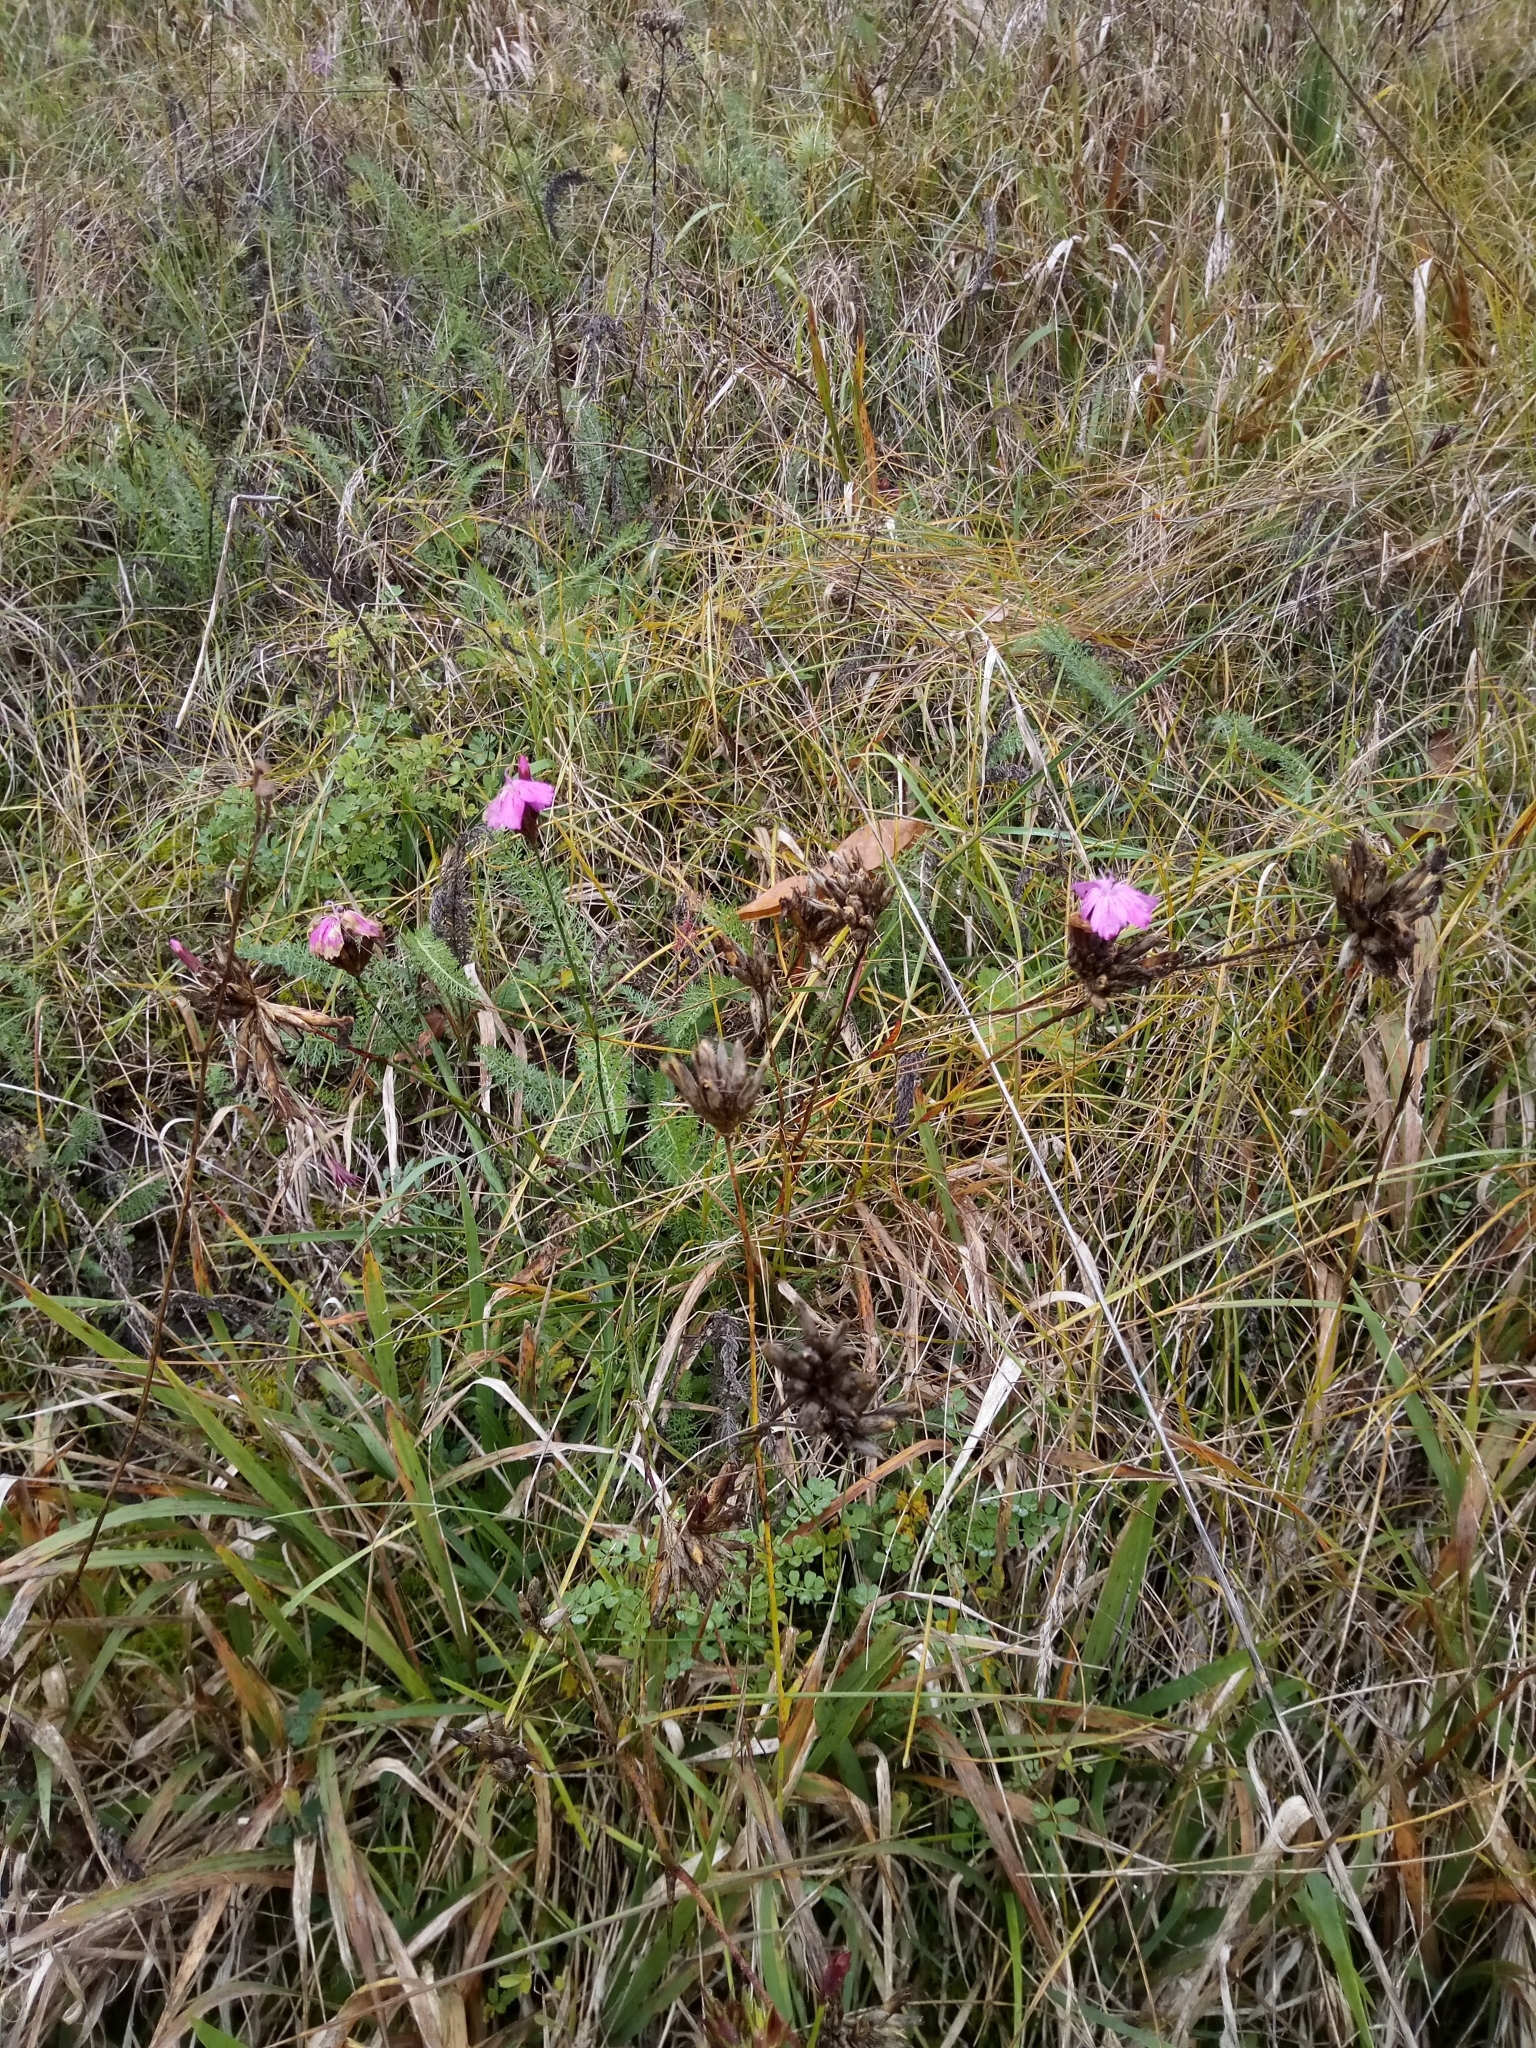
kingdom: Plantae
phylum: Tracheophyta
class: Magnoliopsida
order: Caryophyllales
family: Caryophyllaceae
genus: Dianthus
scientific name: Dianthus carthusianorum
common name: Carthusian pink
